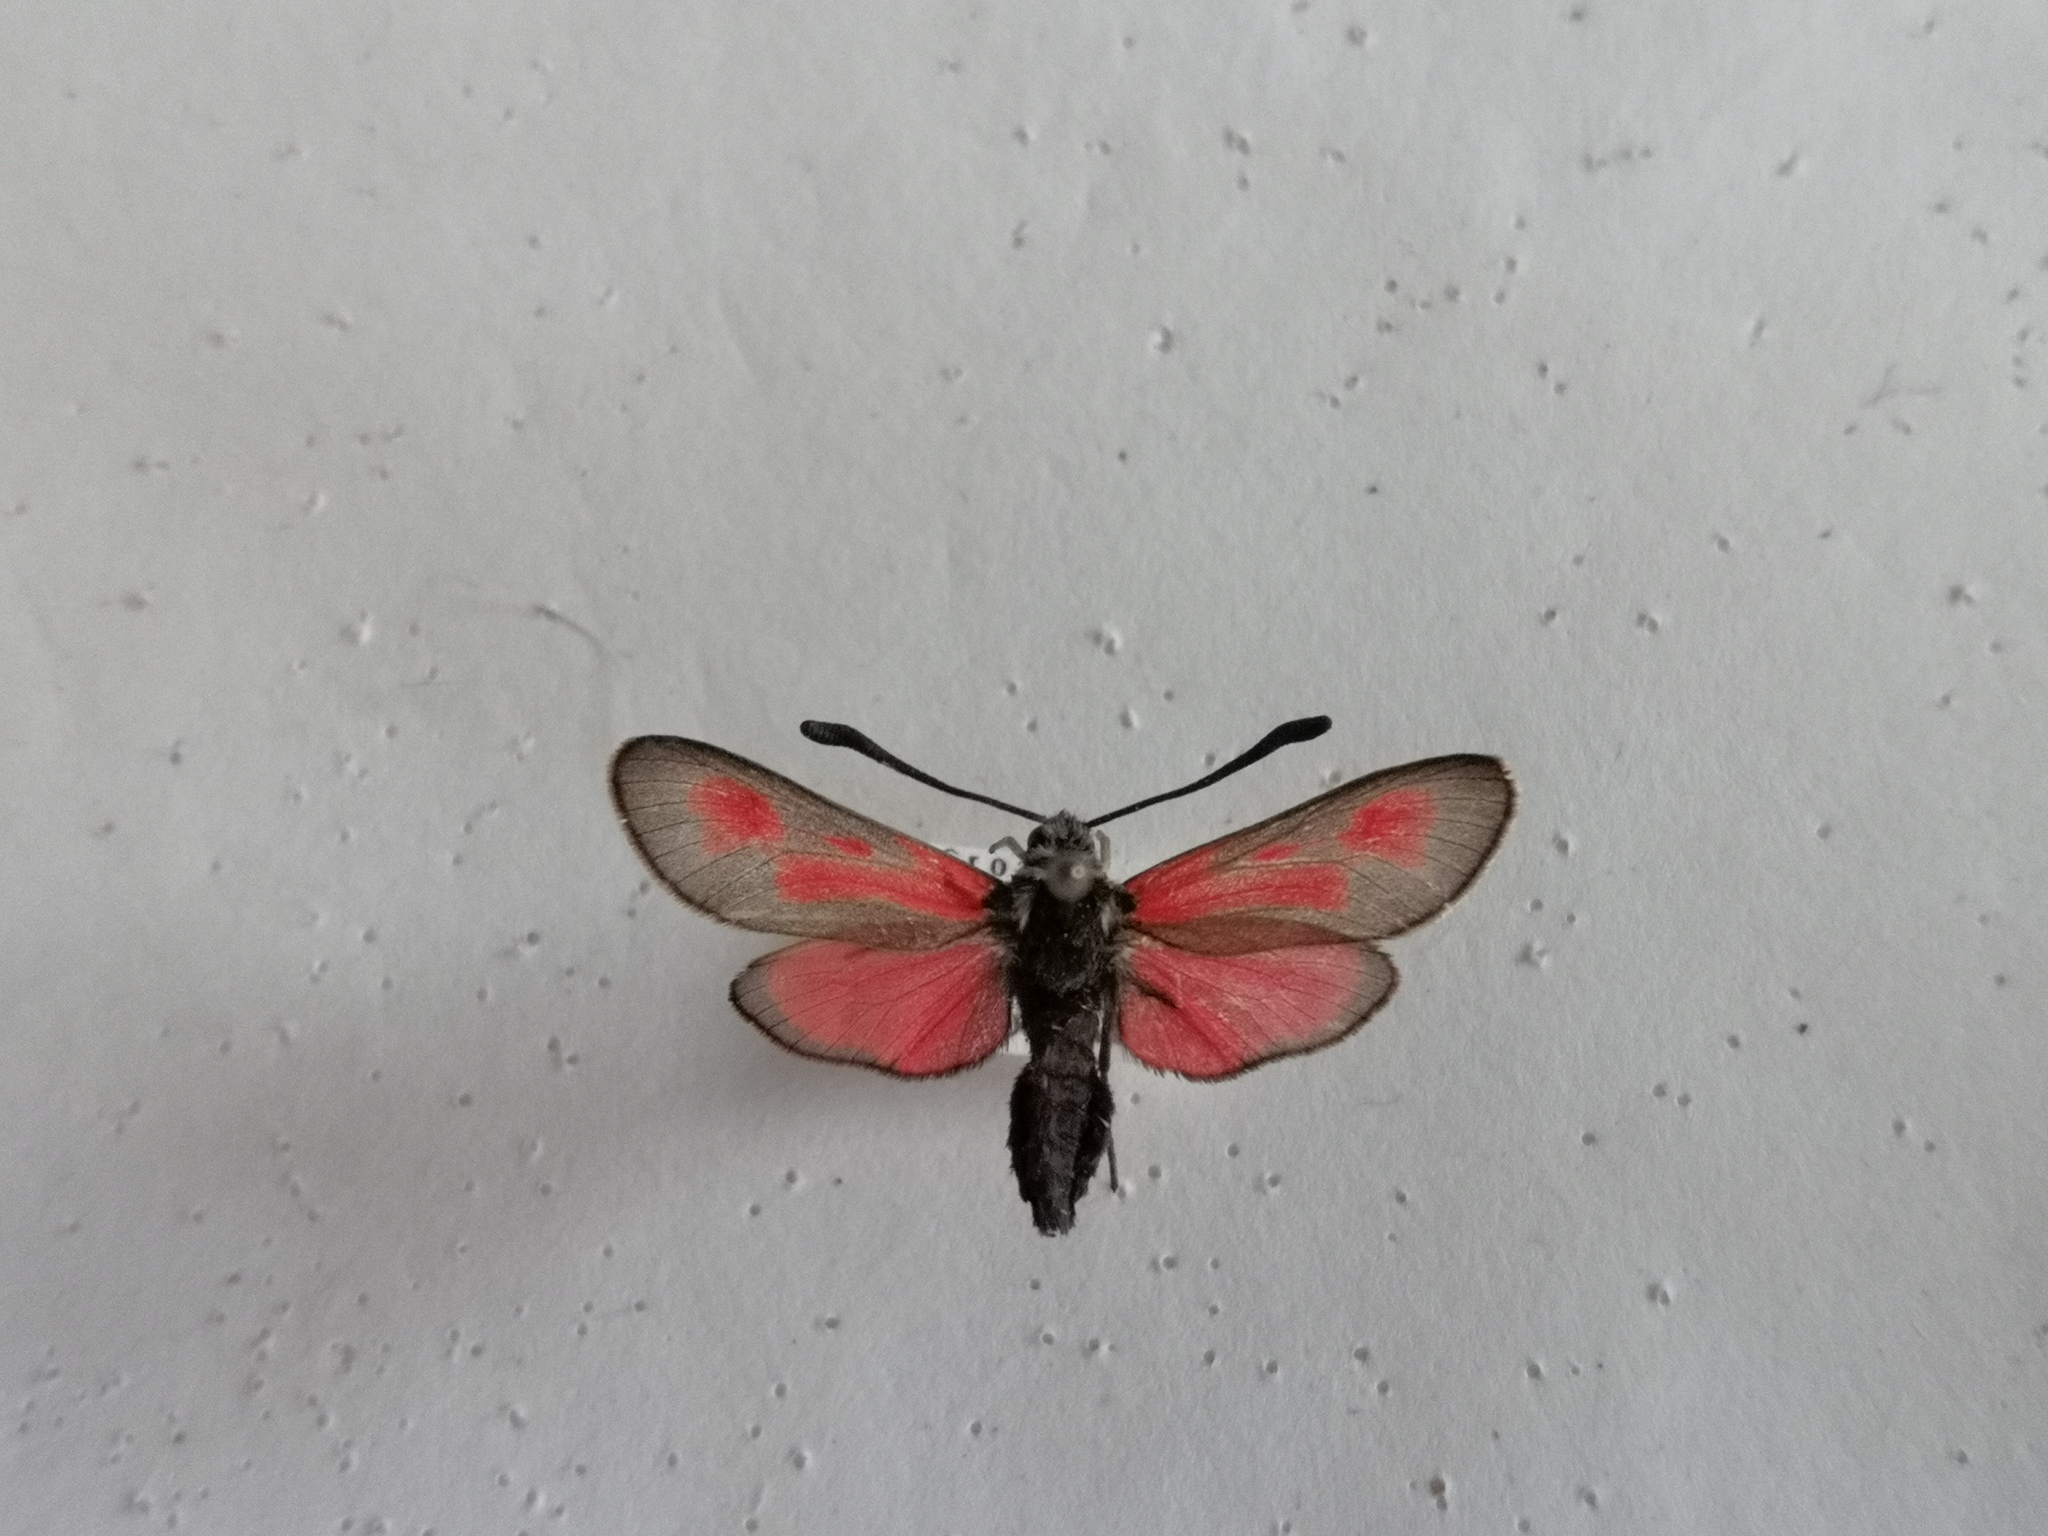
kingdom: Animalia
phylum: Arthropoda
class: Insecta
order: Lepidoptera
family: Zygaenidae
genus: Zygaena
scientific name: Zygaena punctum
